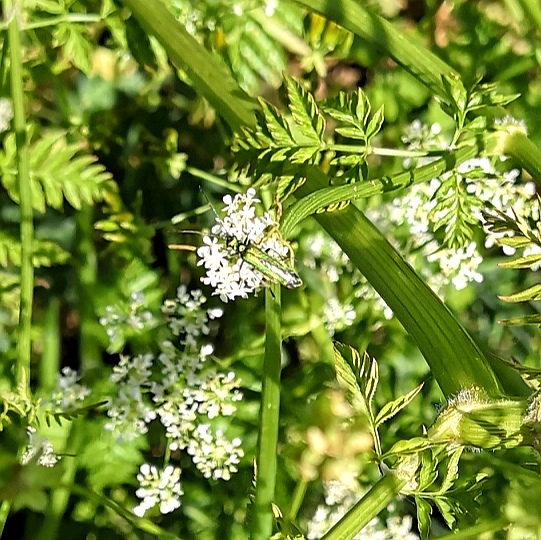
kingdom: Animalia
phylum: Arthropoda
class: Insecta
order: Coleoptera
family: Oedemeridae
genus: Oedemera
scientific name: Oedemera nobilis
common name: Swollen-thighed beetle
